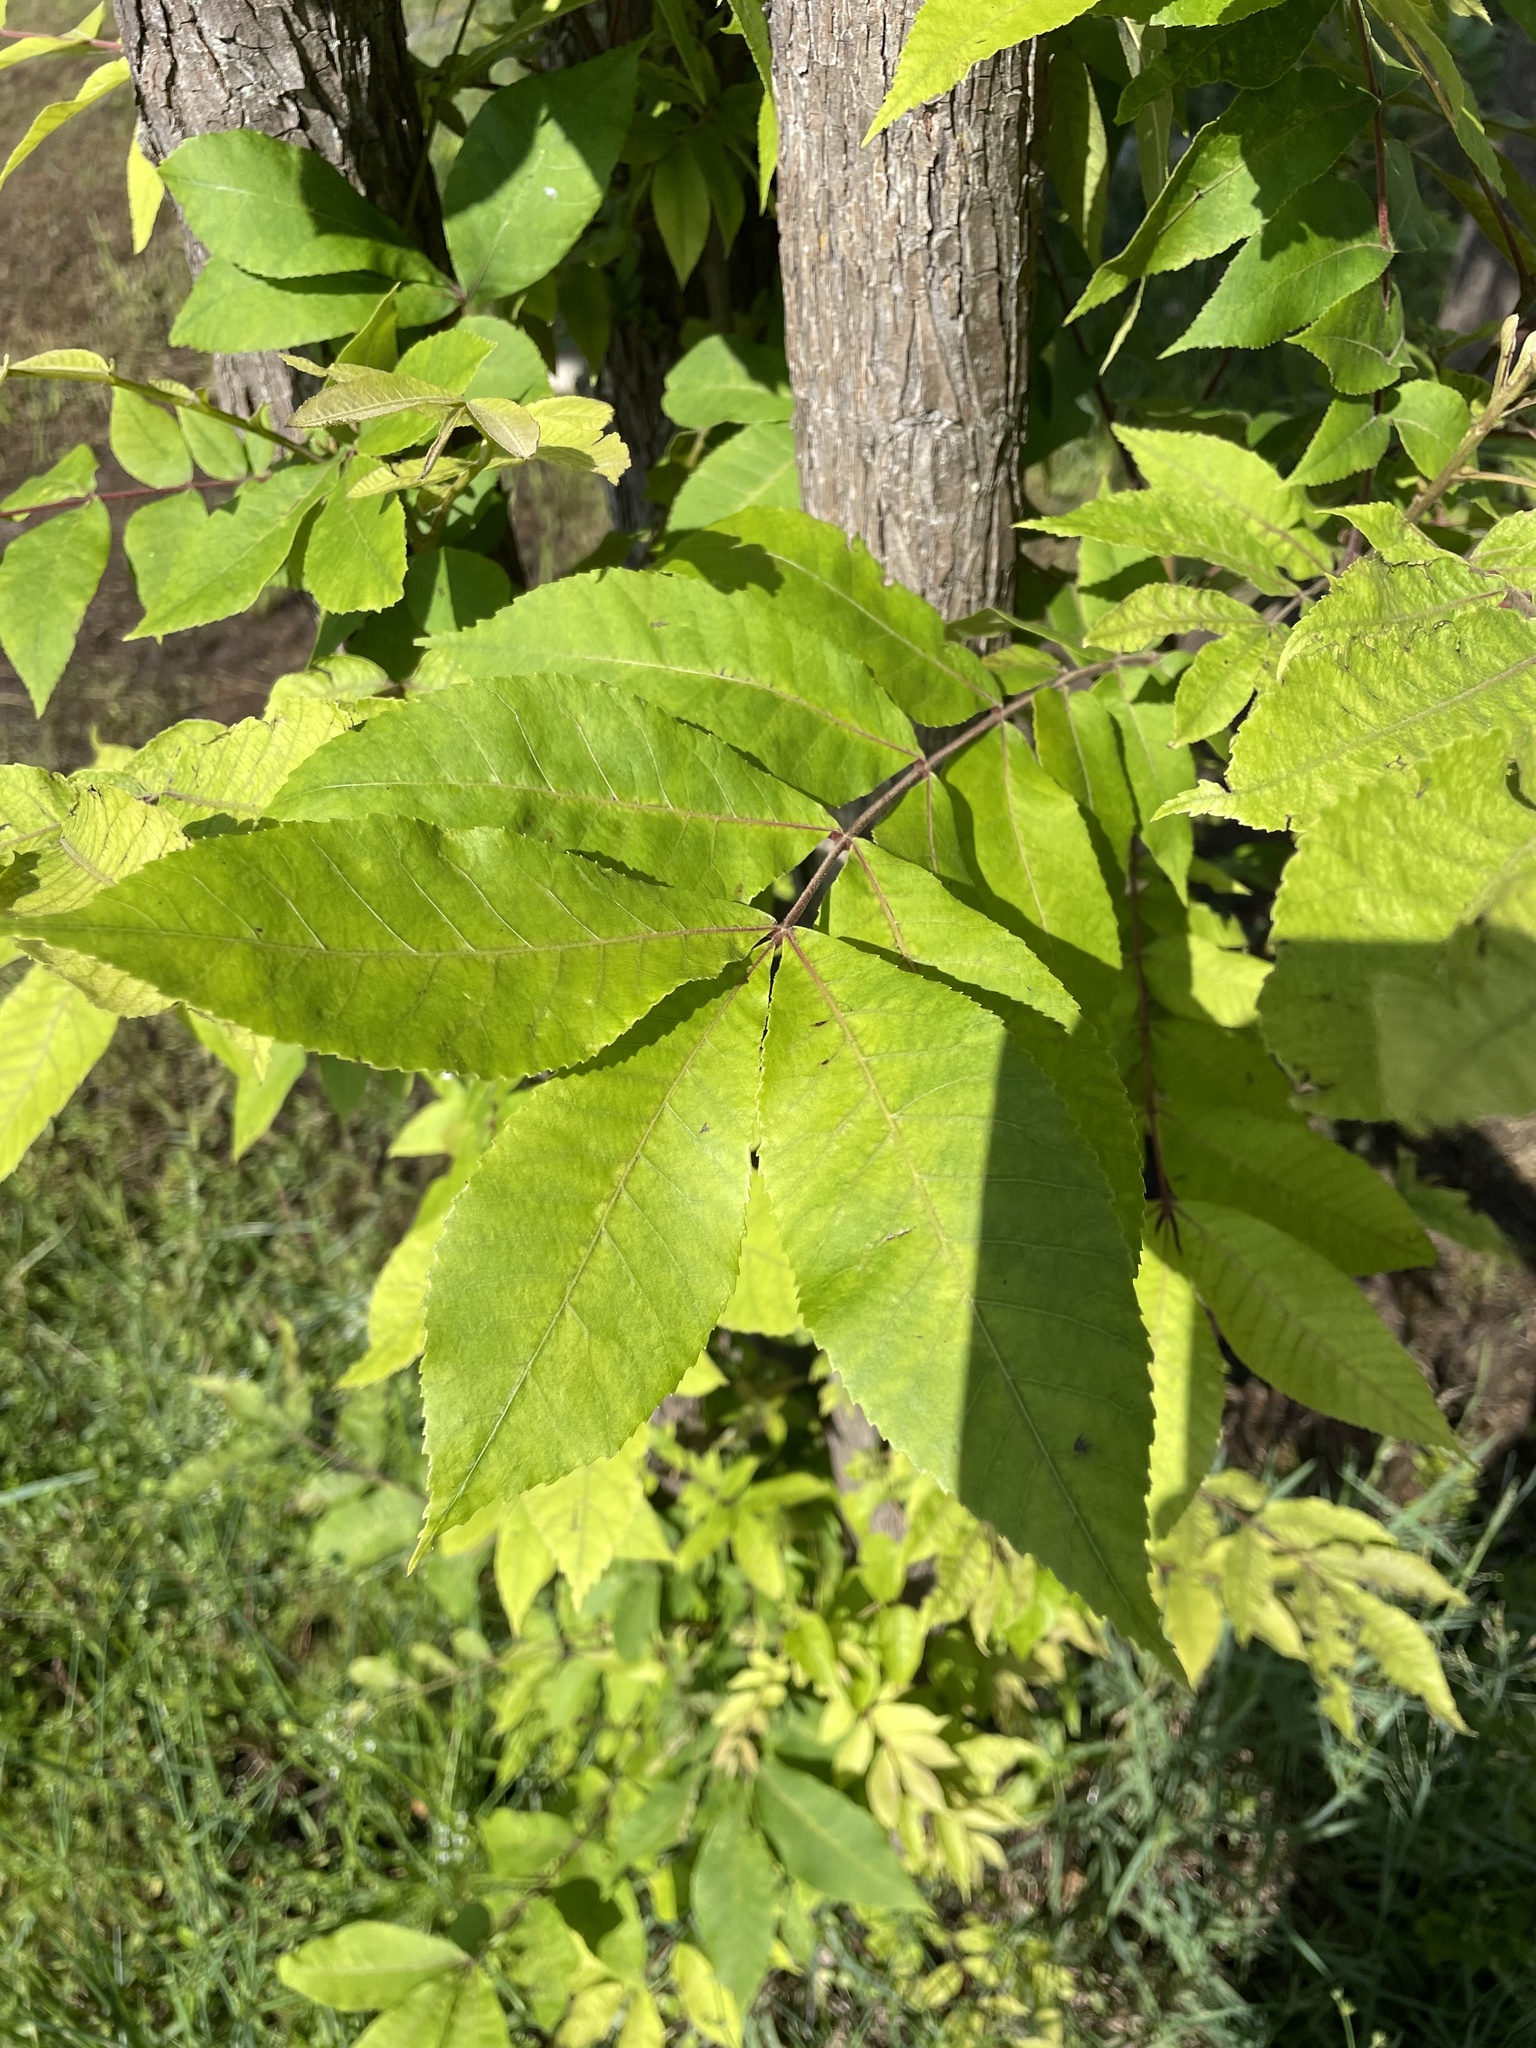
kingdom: Plantae
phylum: Tracheophyta
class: Magnoliopsida
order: Fagales
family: Juglandaceae
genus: Carya
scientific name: Carya illinoinensis
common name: Pecan
